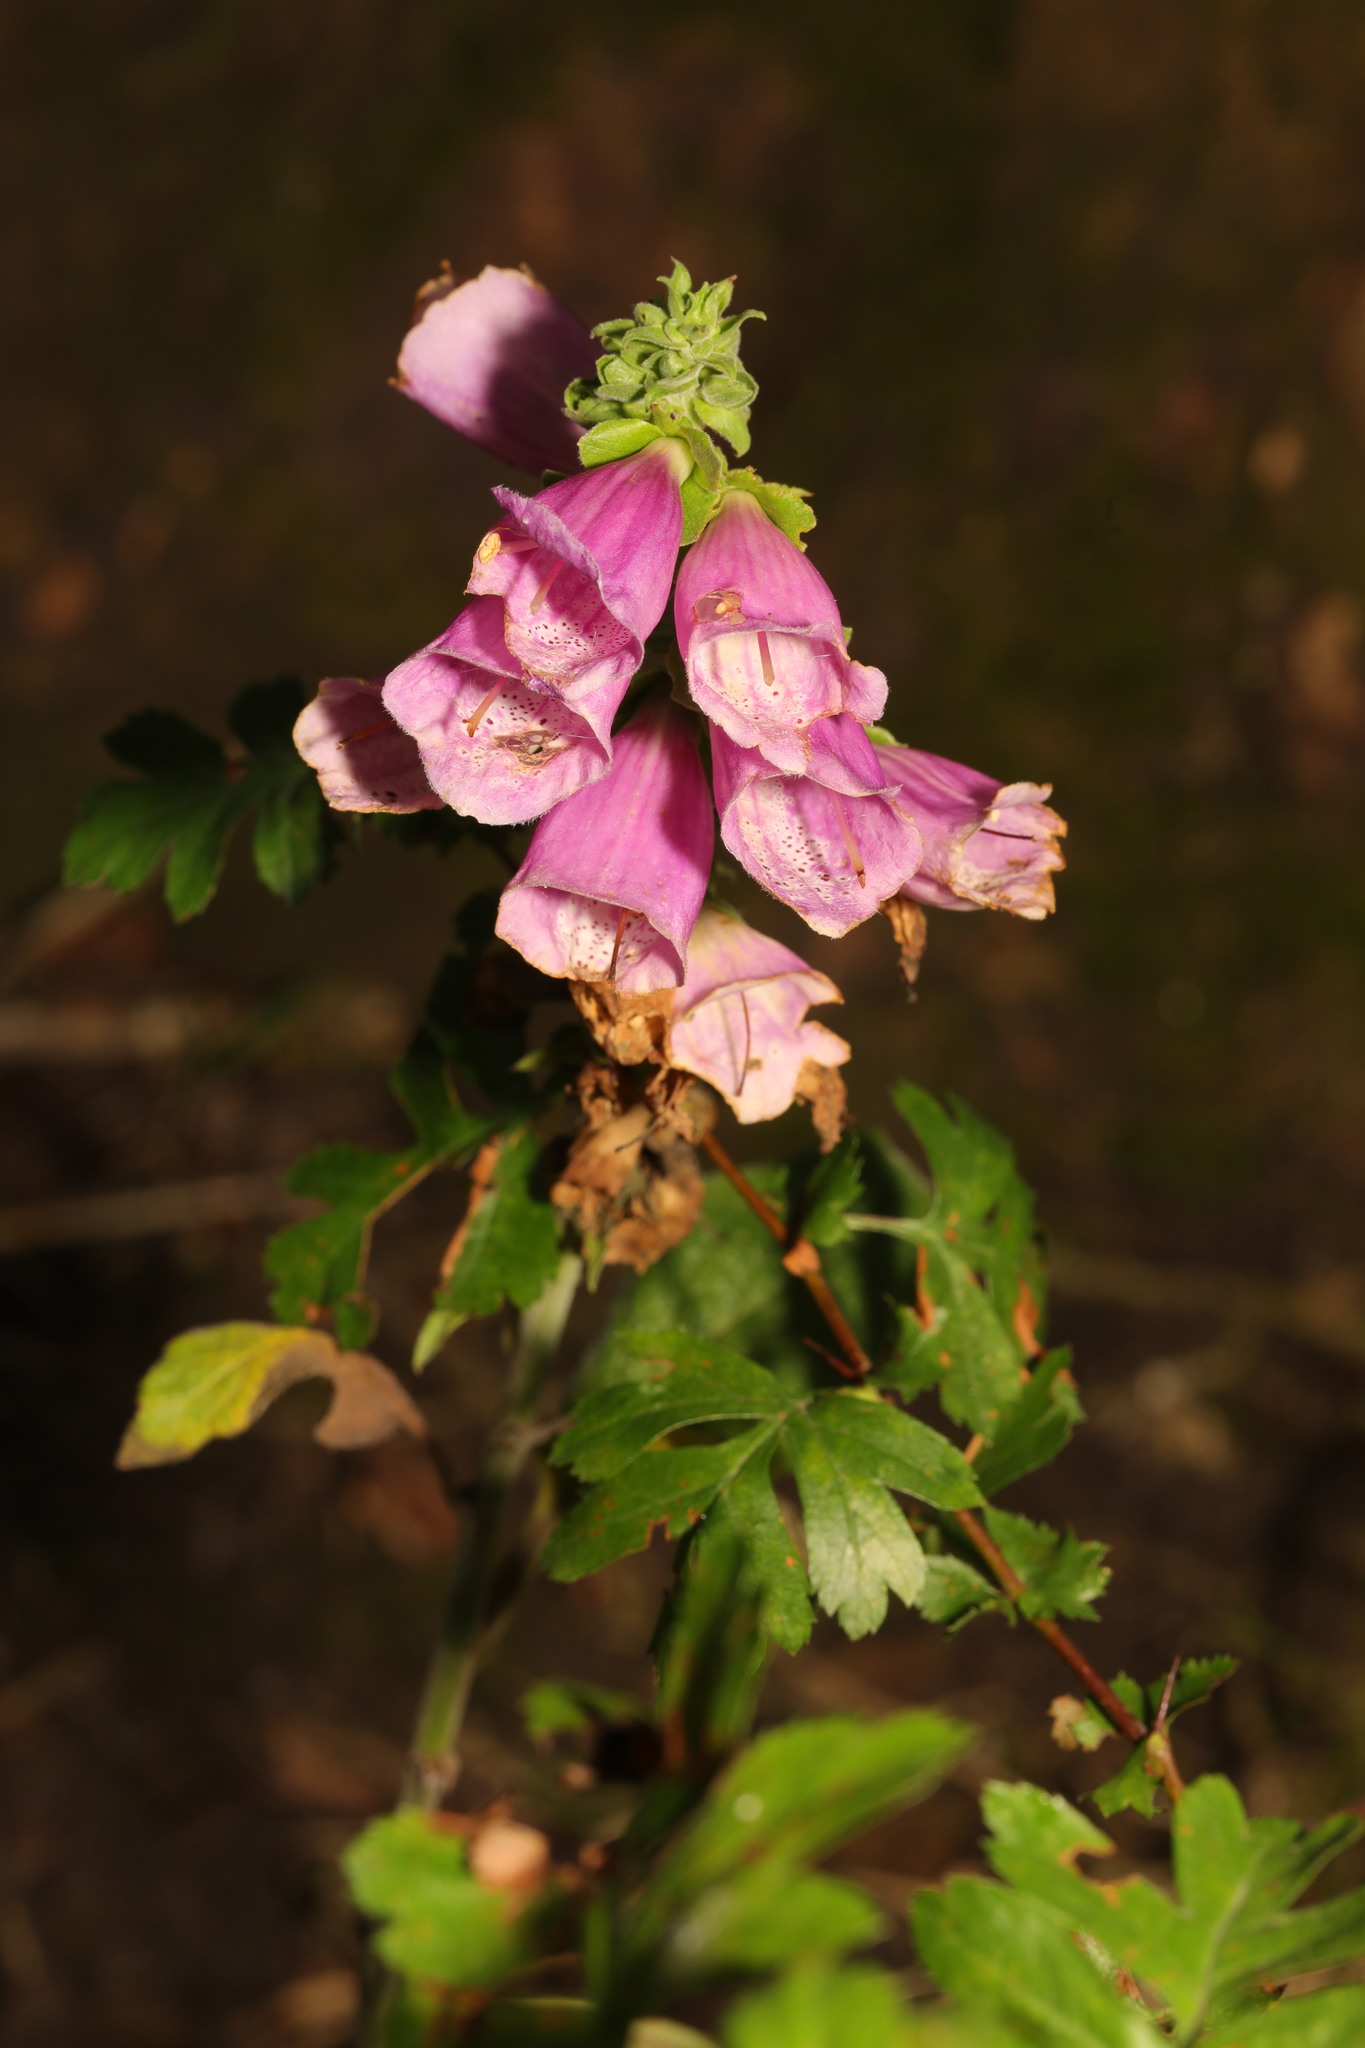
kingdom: Plantae
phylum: Tracheophyta
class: Magnoliopsida
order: Lamiales
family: Plantaginaceae
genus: Digitalis
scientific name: Digitalis purpurea
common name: Foxglove
